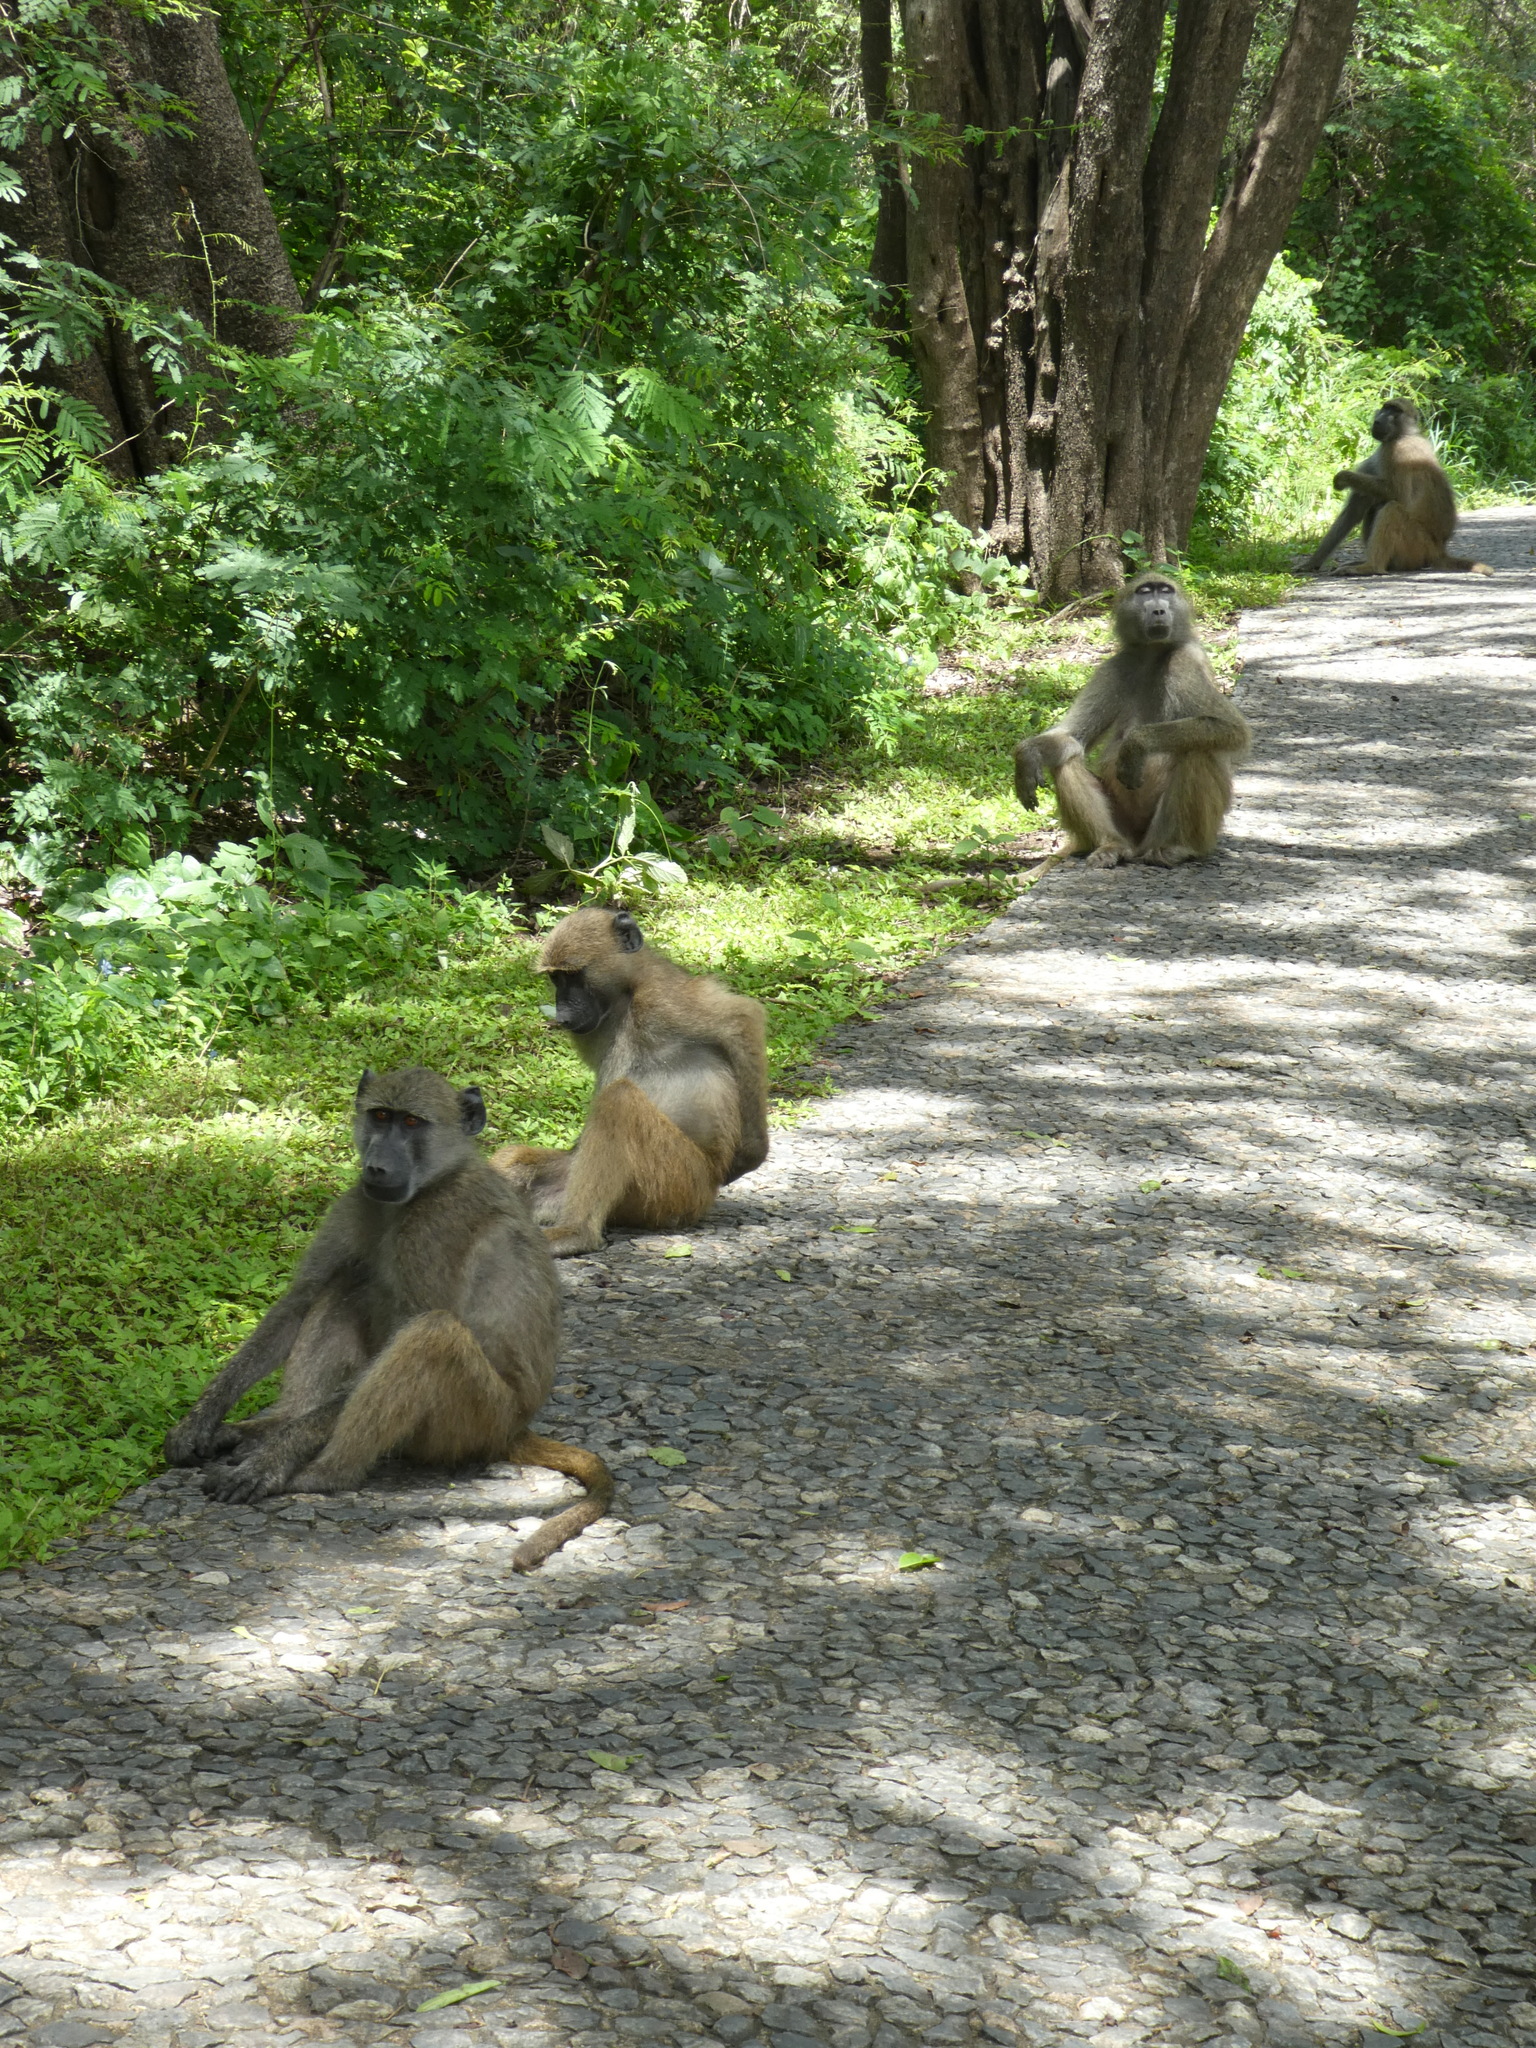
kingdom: Animalia
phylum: Chordata
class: Mammalia
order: Primates
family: Cercopithecidae
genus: Papio
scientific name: Papio ursinus
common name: Chacma baboon
